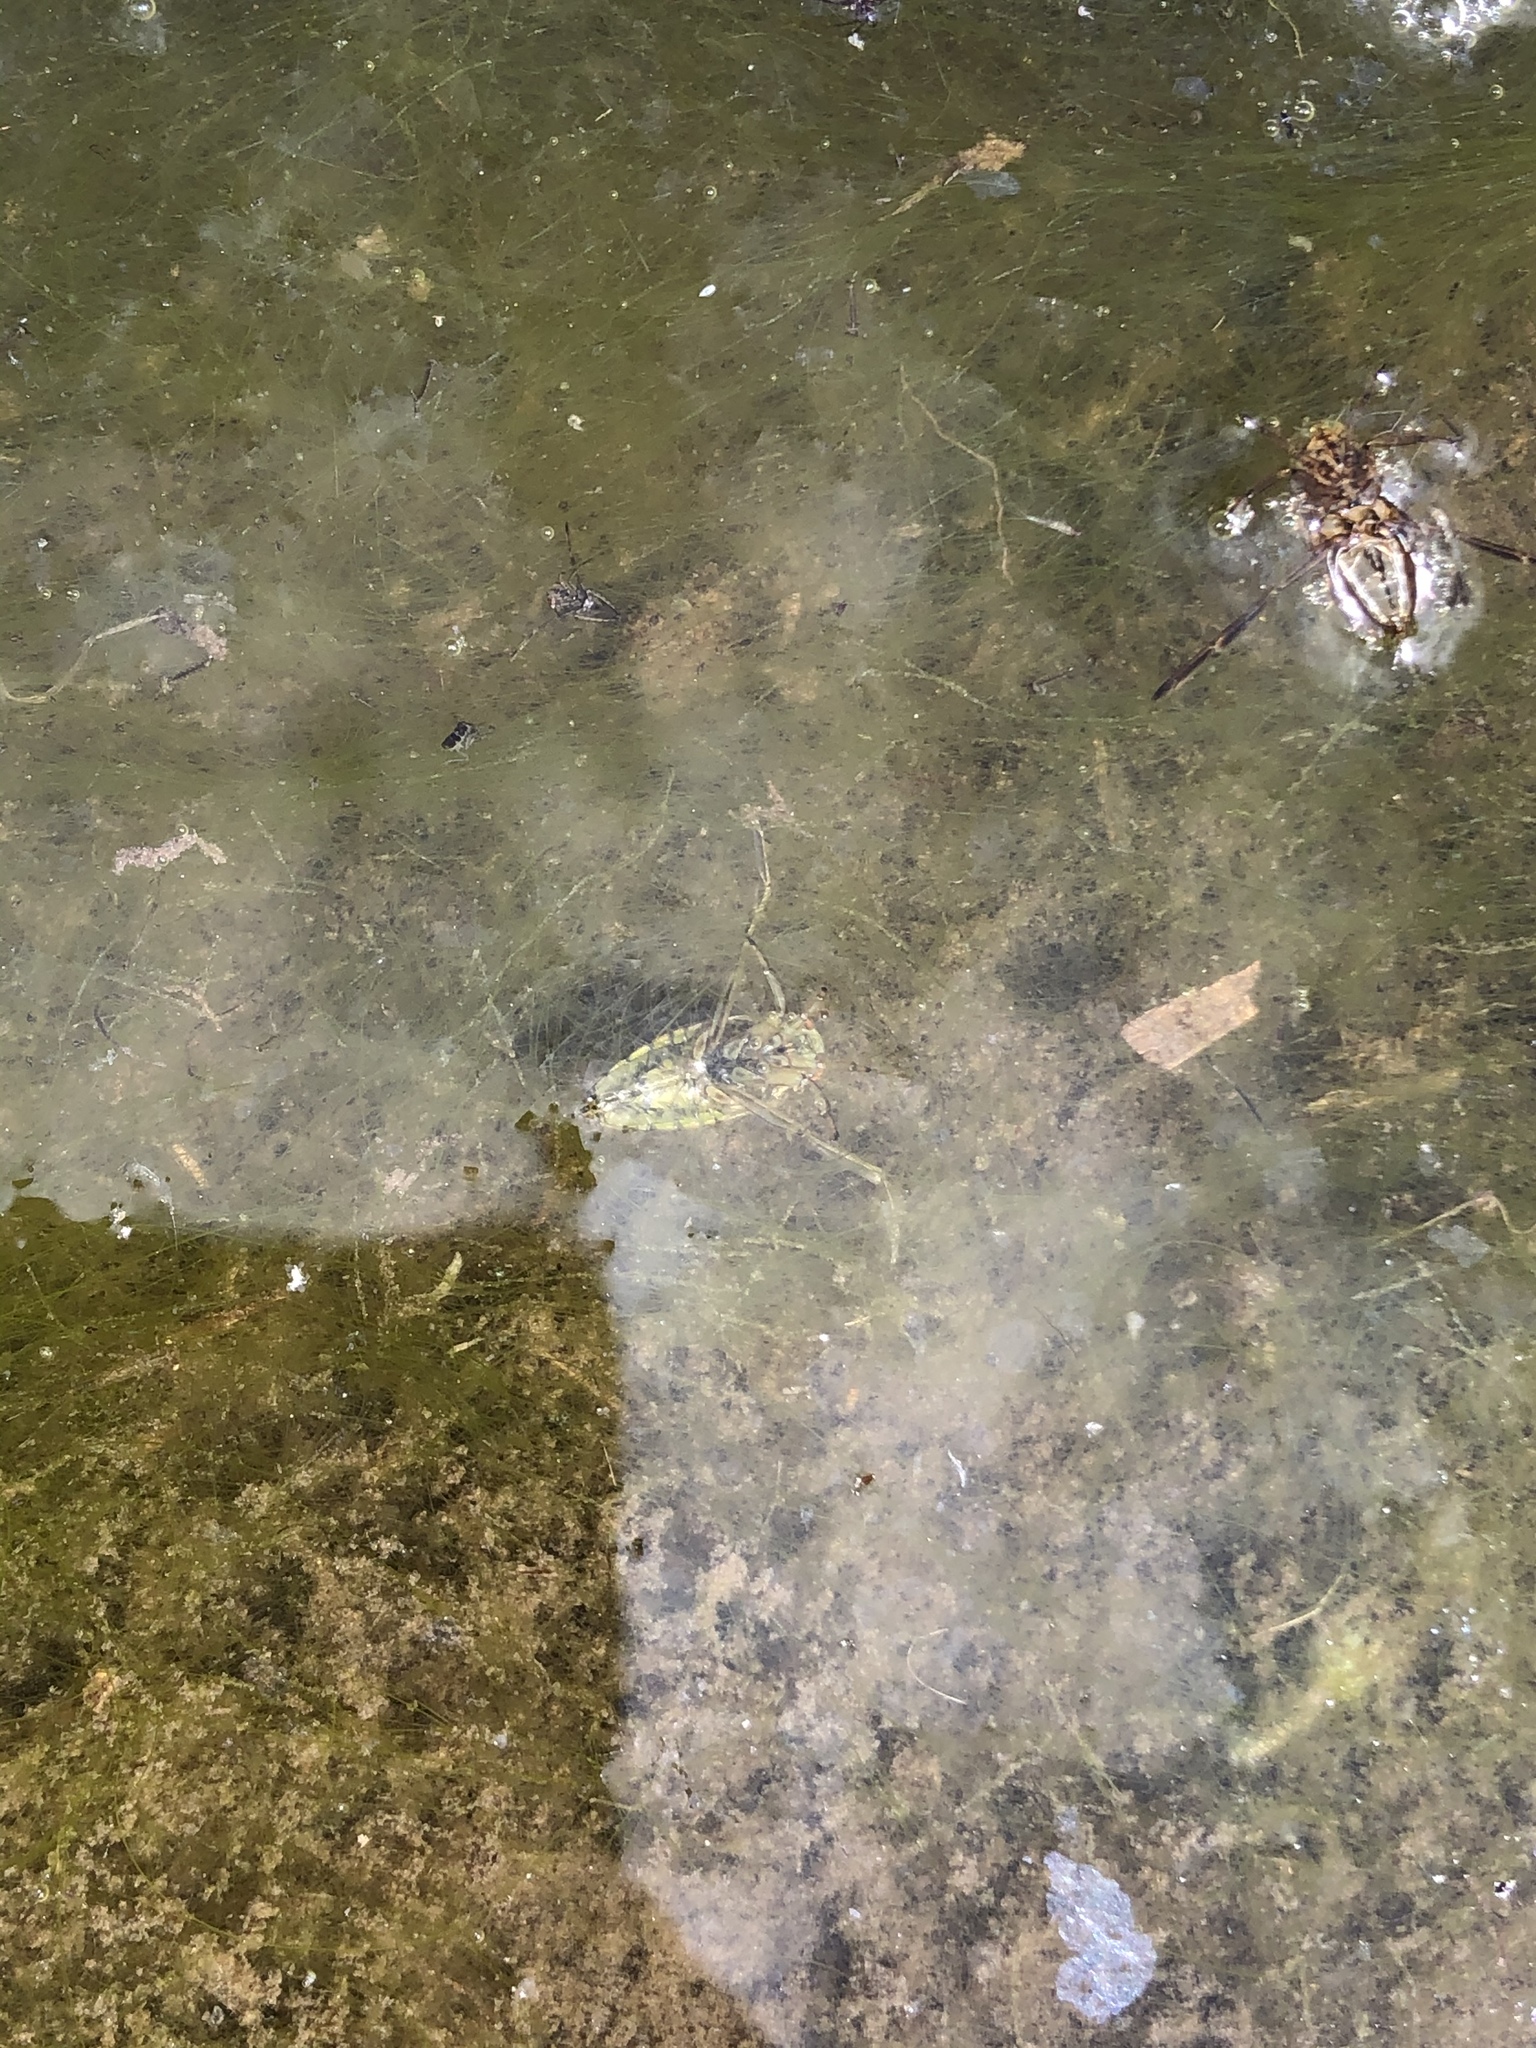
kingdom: Animalia
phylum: Arthropoda
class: Insecta
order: Hemiptera
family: Notonectidae
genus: Notonecta
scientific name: Notonecta
